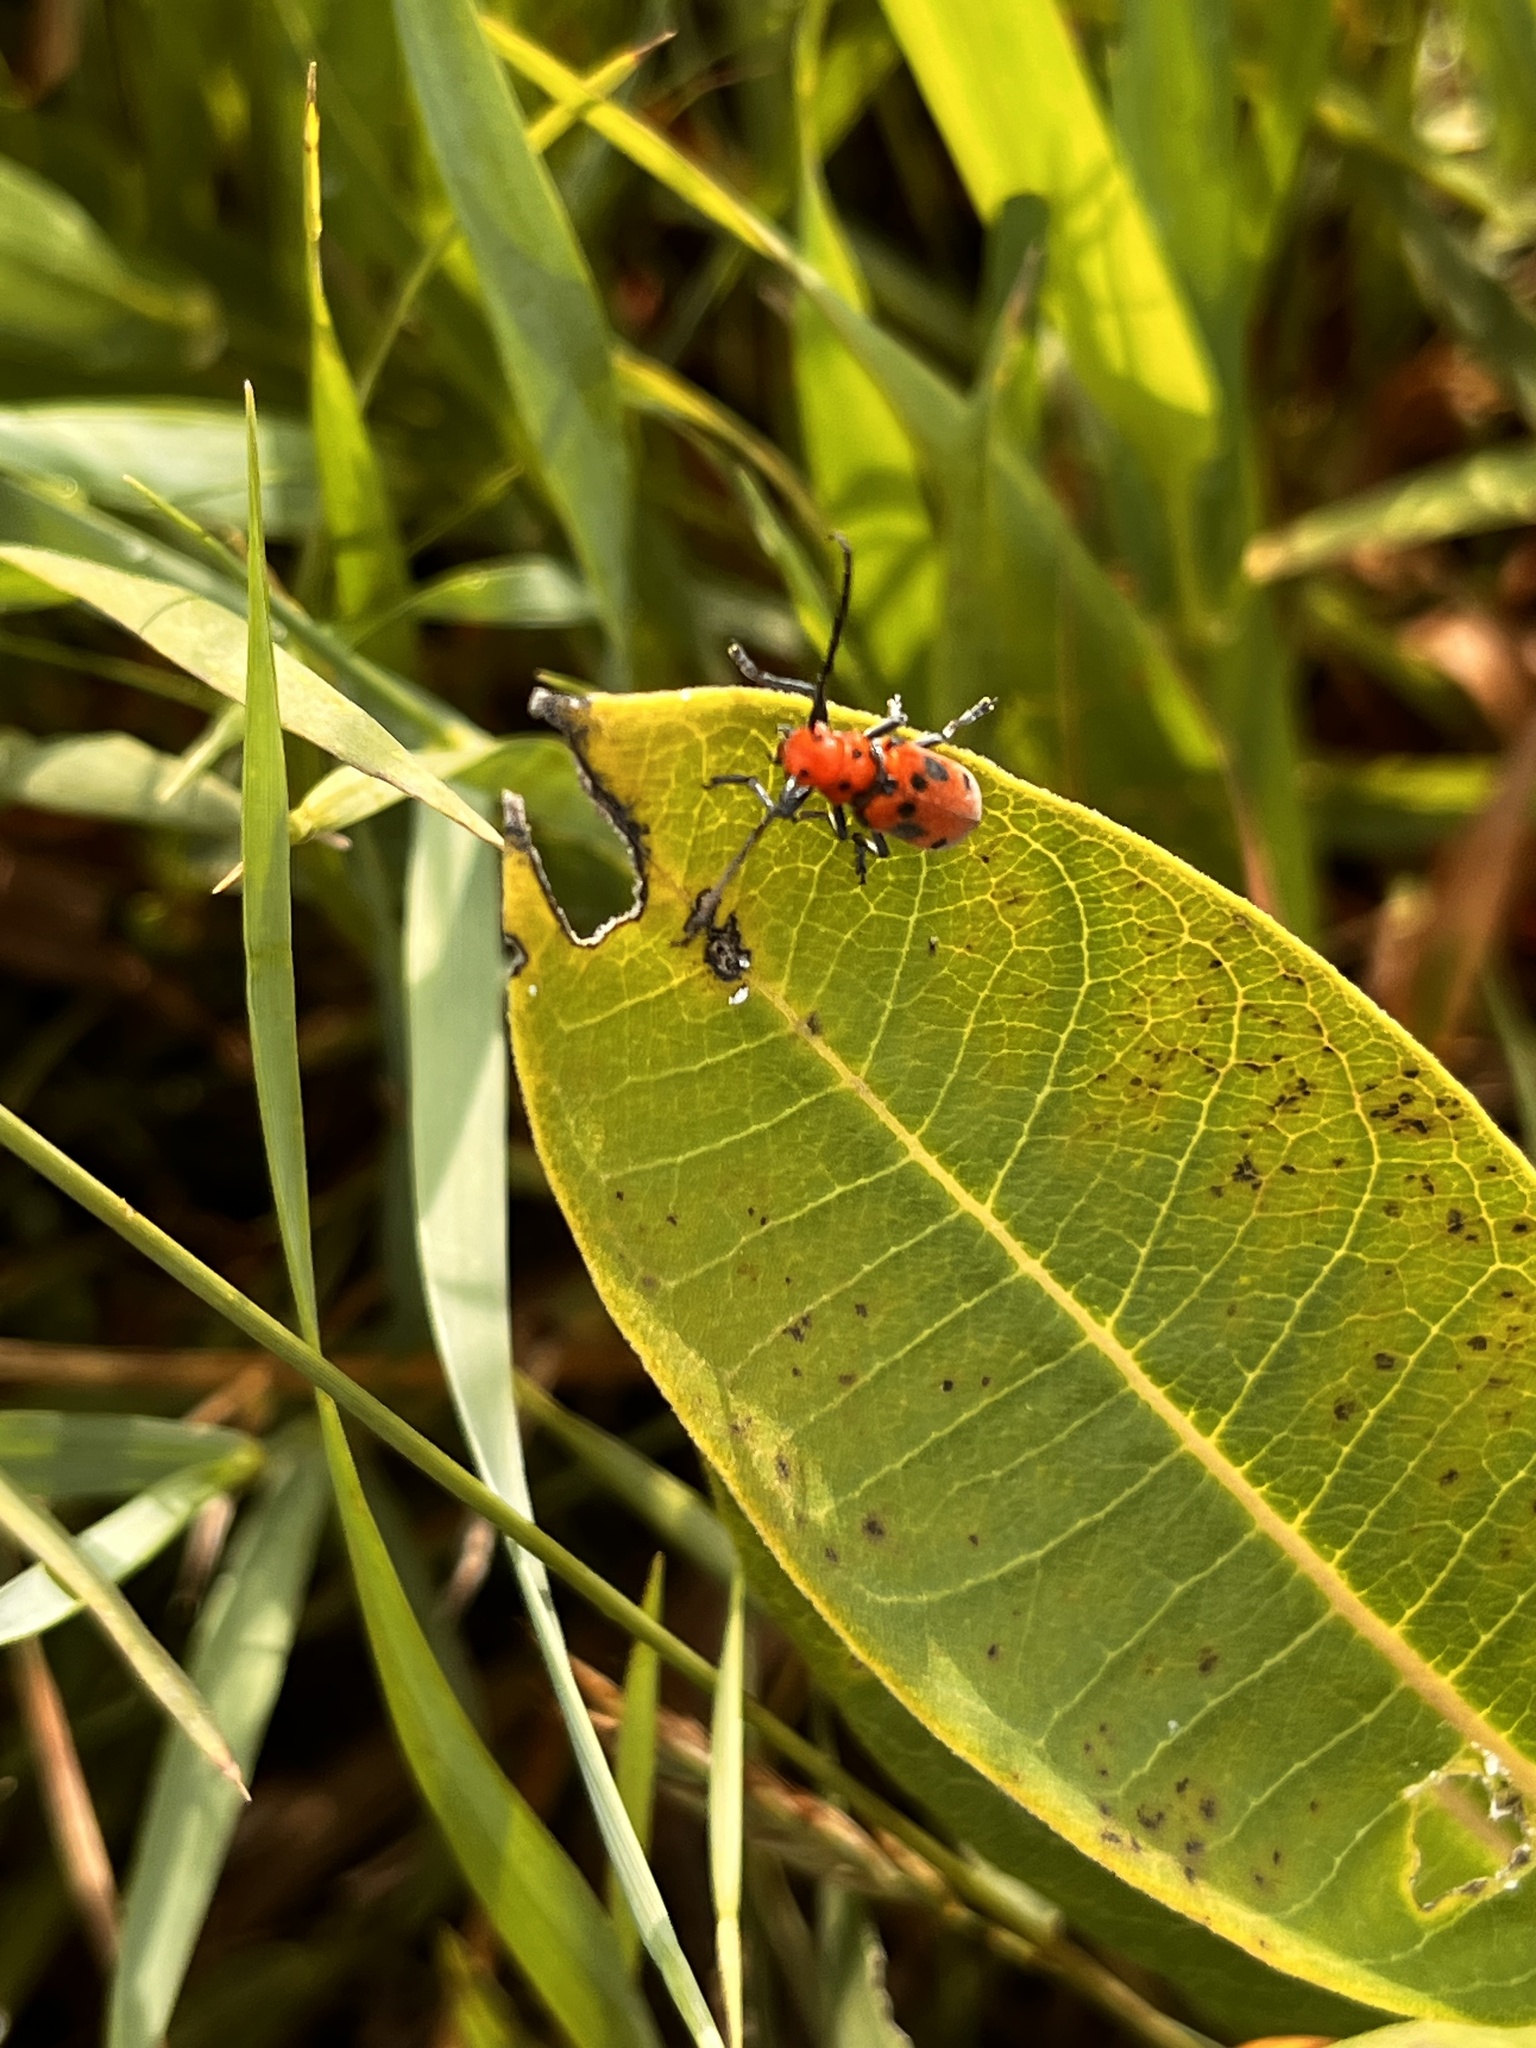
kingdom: Animalia
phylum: Arthropoda
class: Insecta
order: Coleoptera
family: Cerambycidae
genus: Tetraopes
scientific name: Tetraopes tetrophthalmus
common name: Red milkweed beetle
